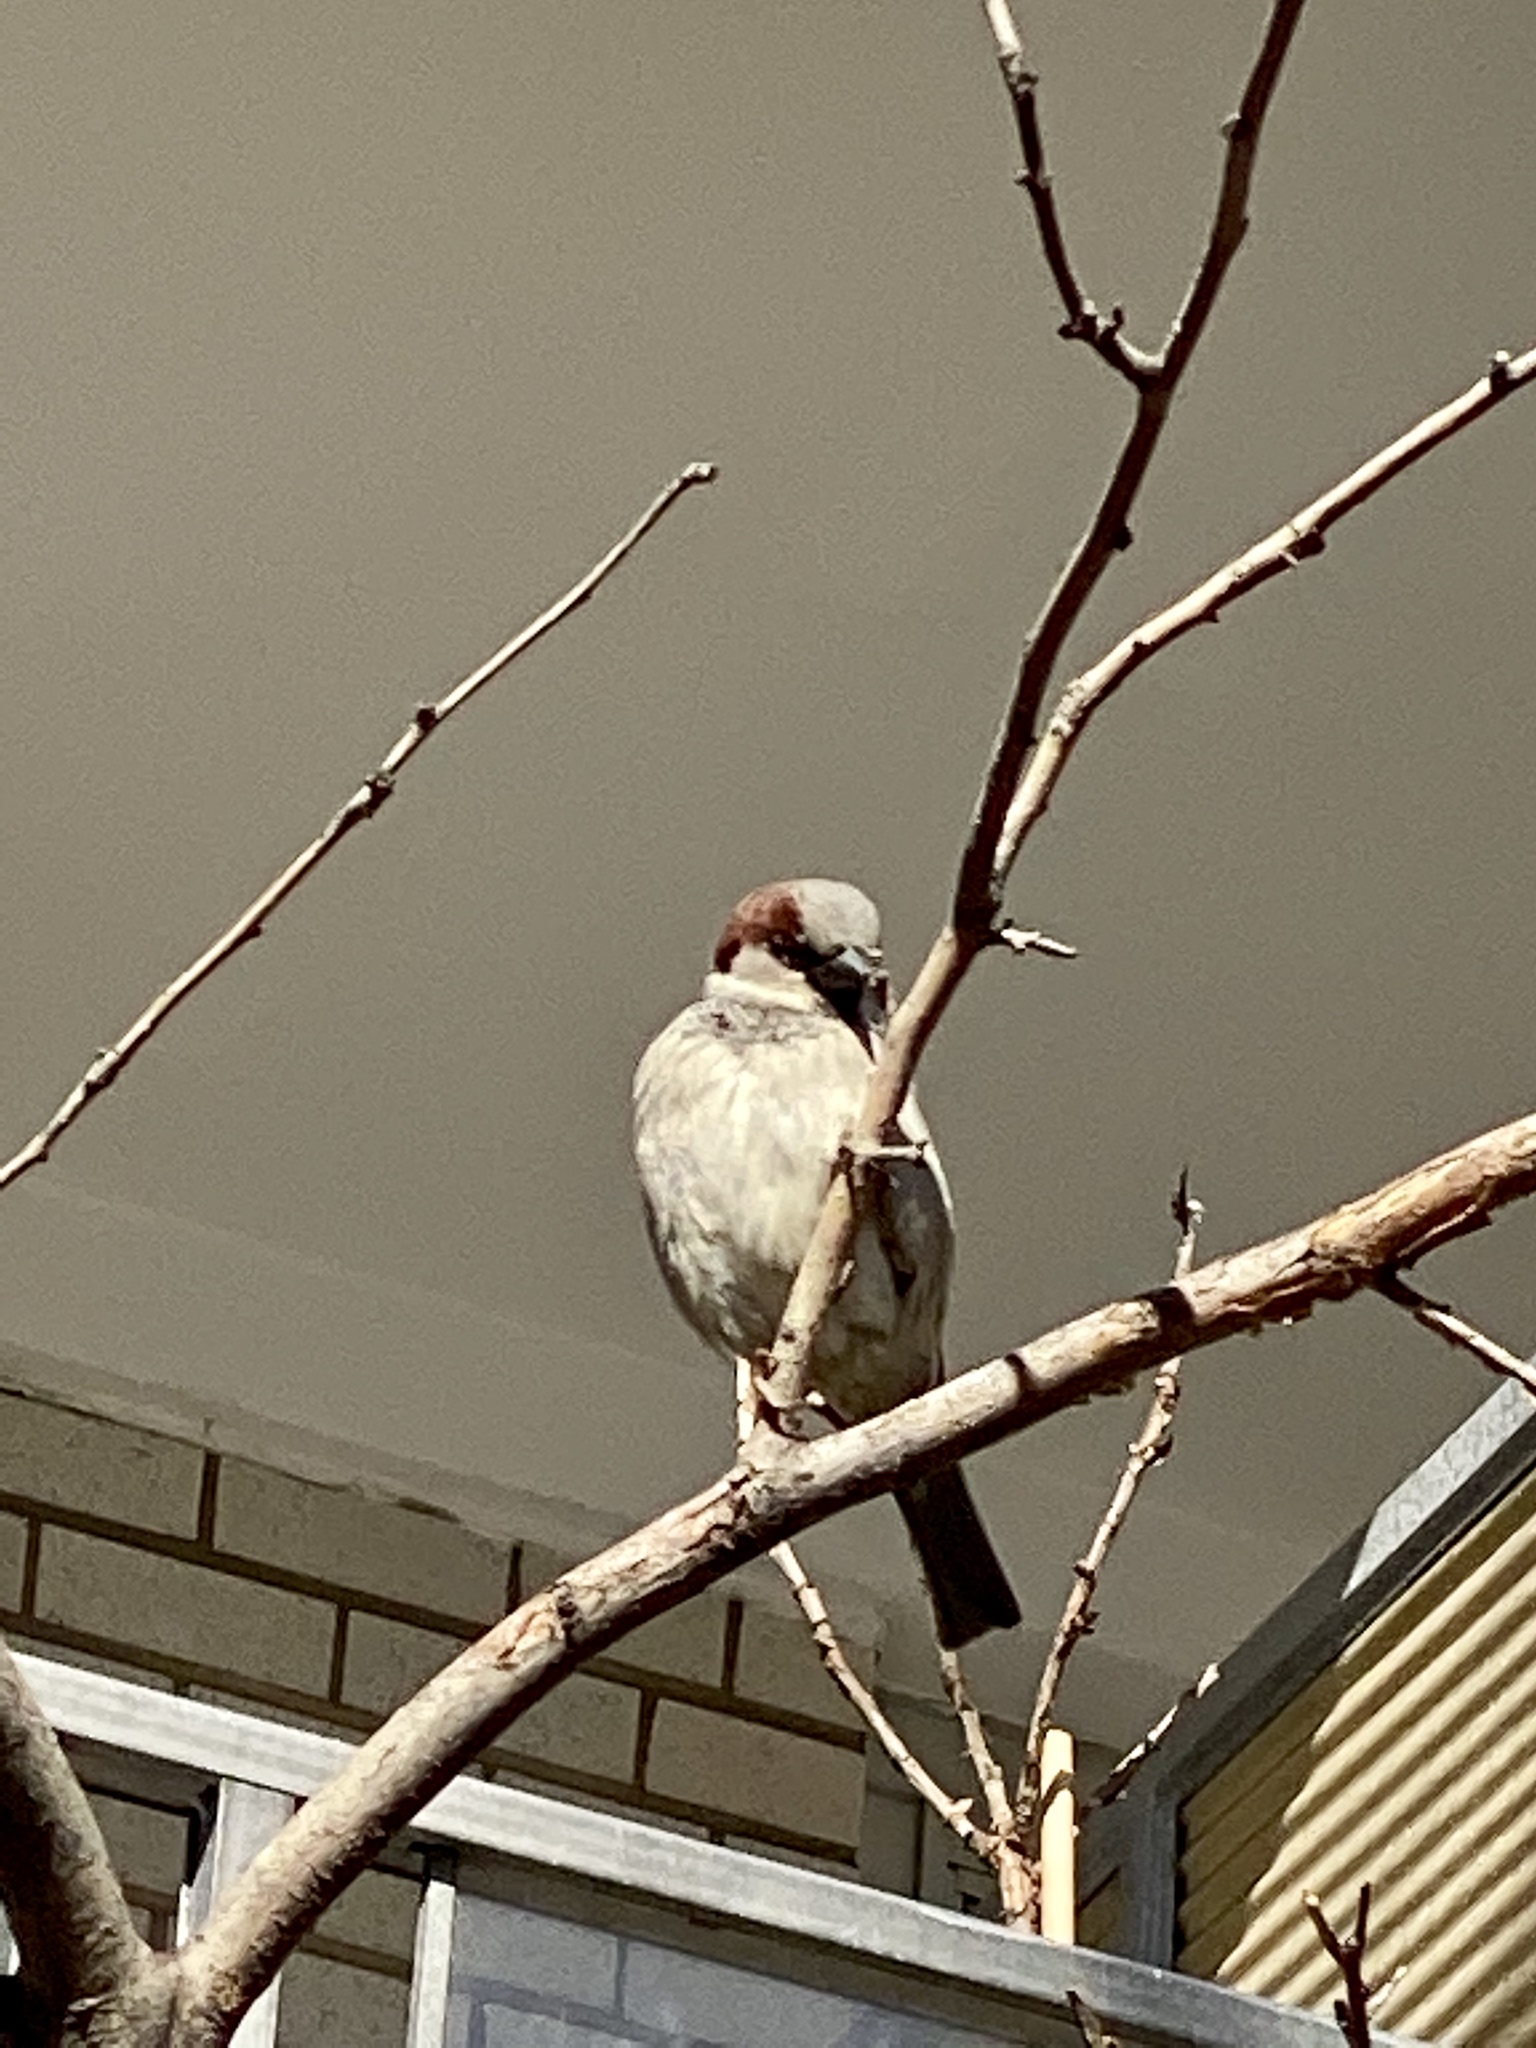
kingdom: Animalia
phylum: Chordata
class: Aves
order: Passeriformes
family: Passeridae
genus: Passer
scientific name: Passer domesticus
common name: House sparrow
